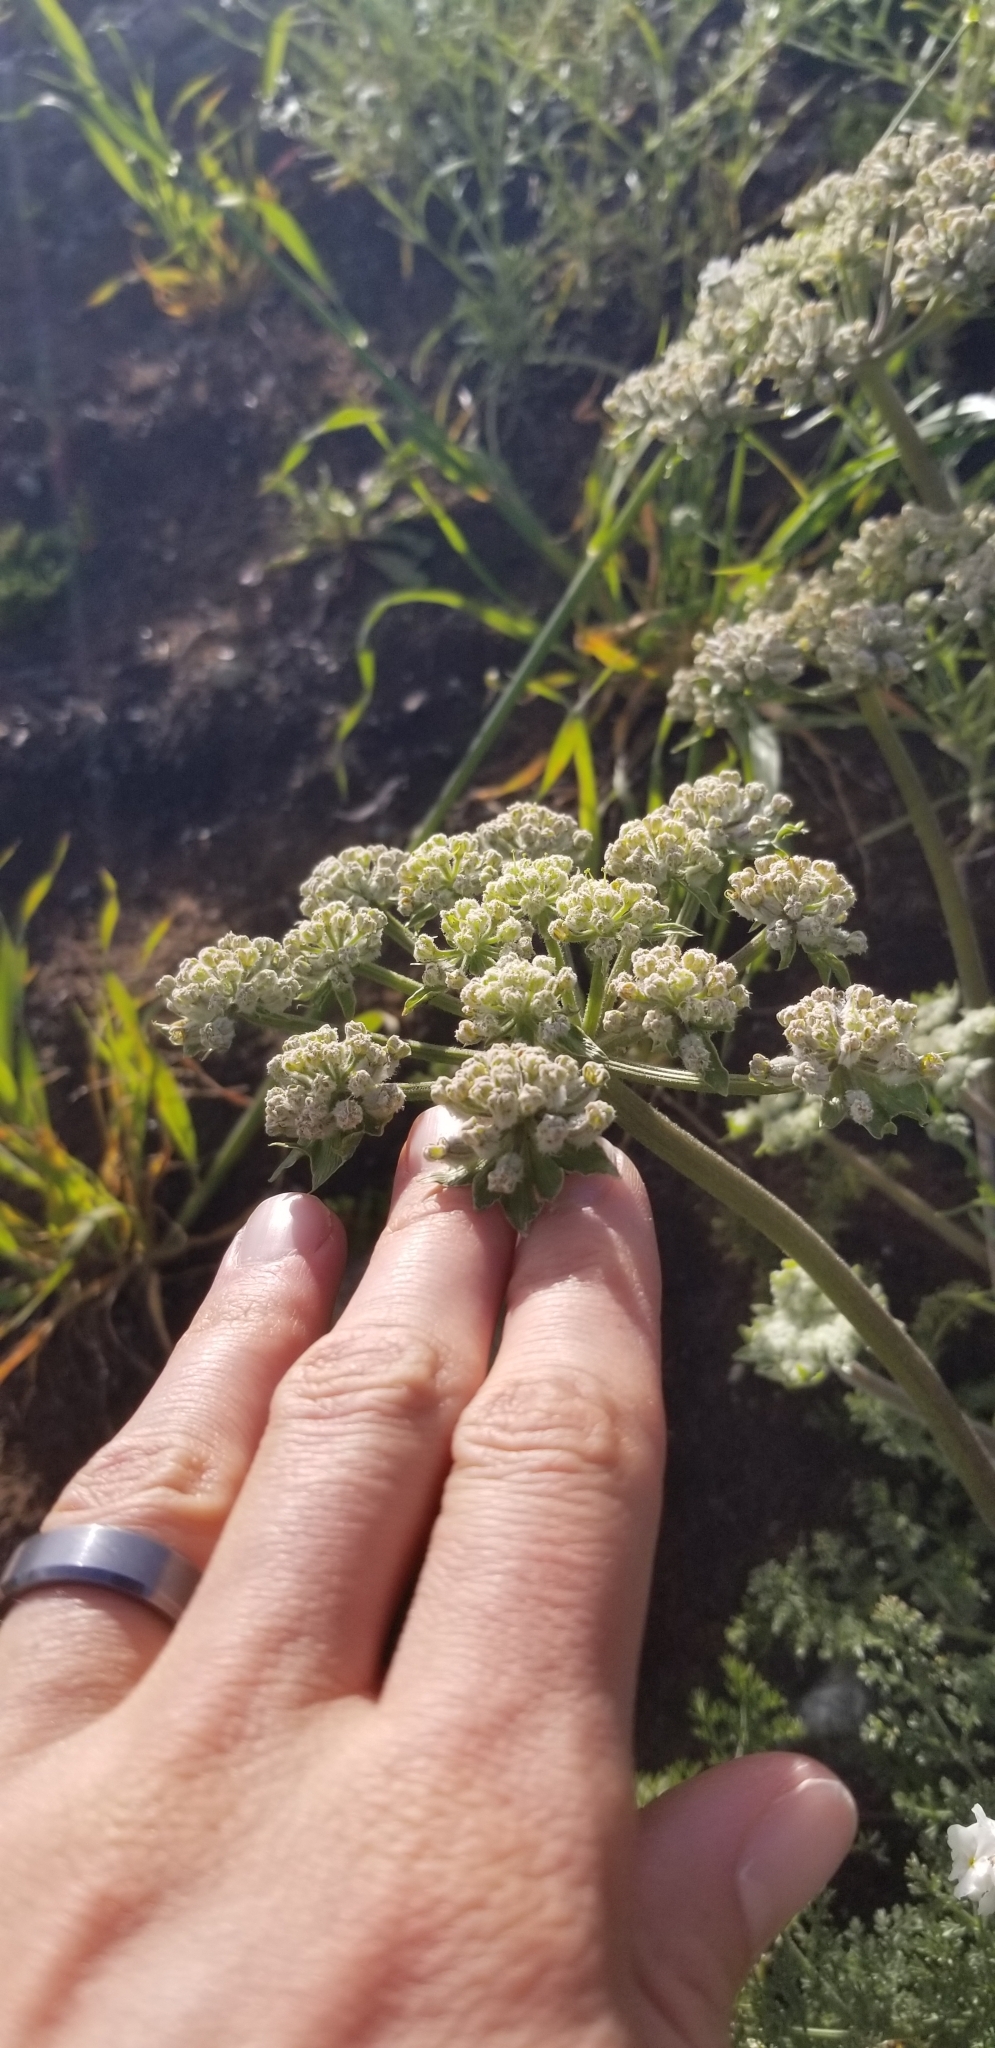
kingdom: Plantae
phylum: Tracheophyta
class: Magnoliopsida
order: Apiales
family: Apiaceae
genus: Lomatium
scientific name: Lomatium dasycarpum
